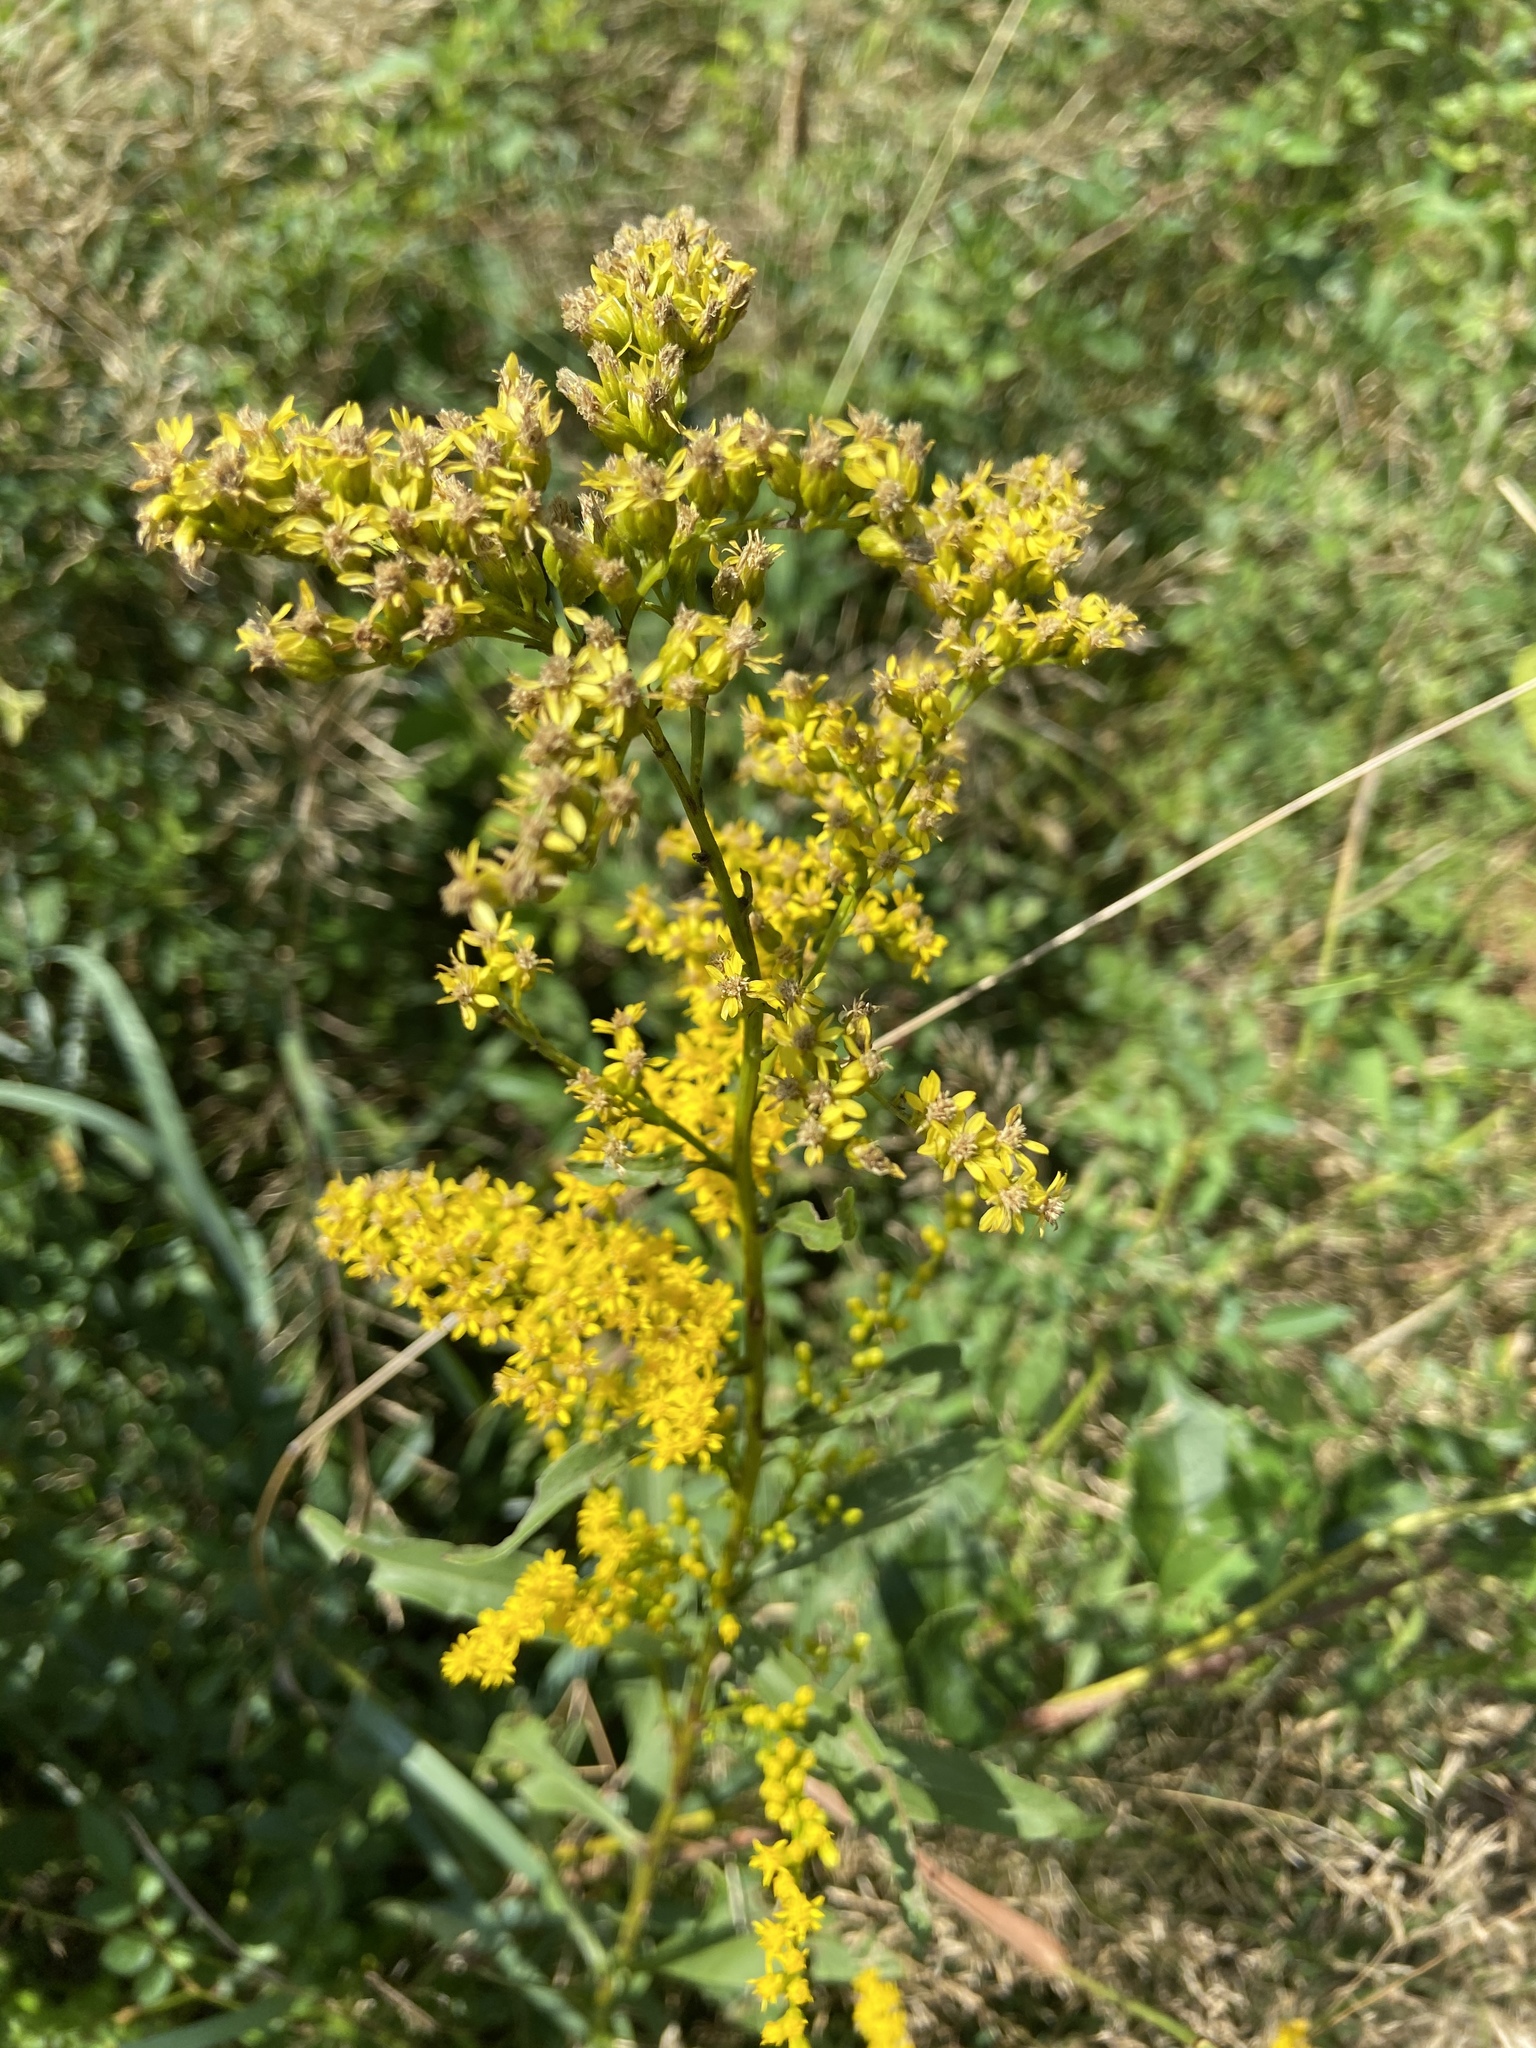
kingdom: Plantae
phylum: Tracheophyta
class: Magnoliopsida
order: Asterales
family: Asteraceae
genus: Solidago
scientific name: Solidago juncea
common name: Early goldenrod
